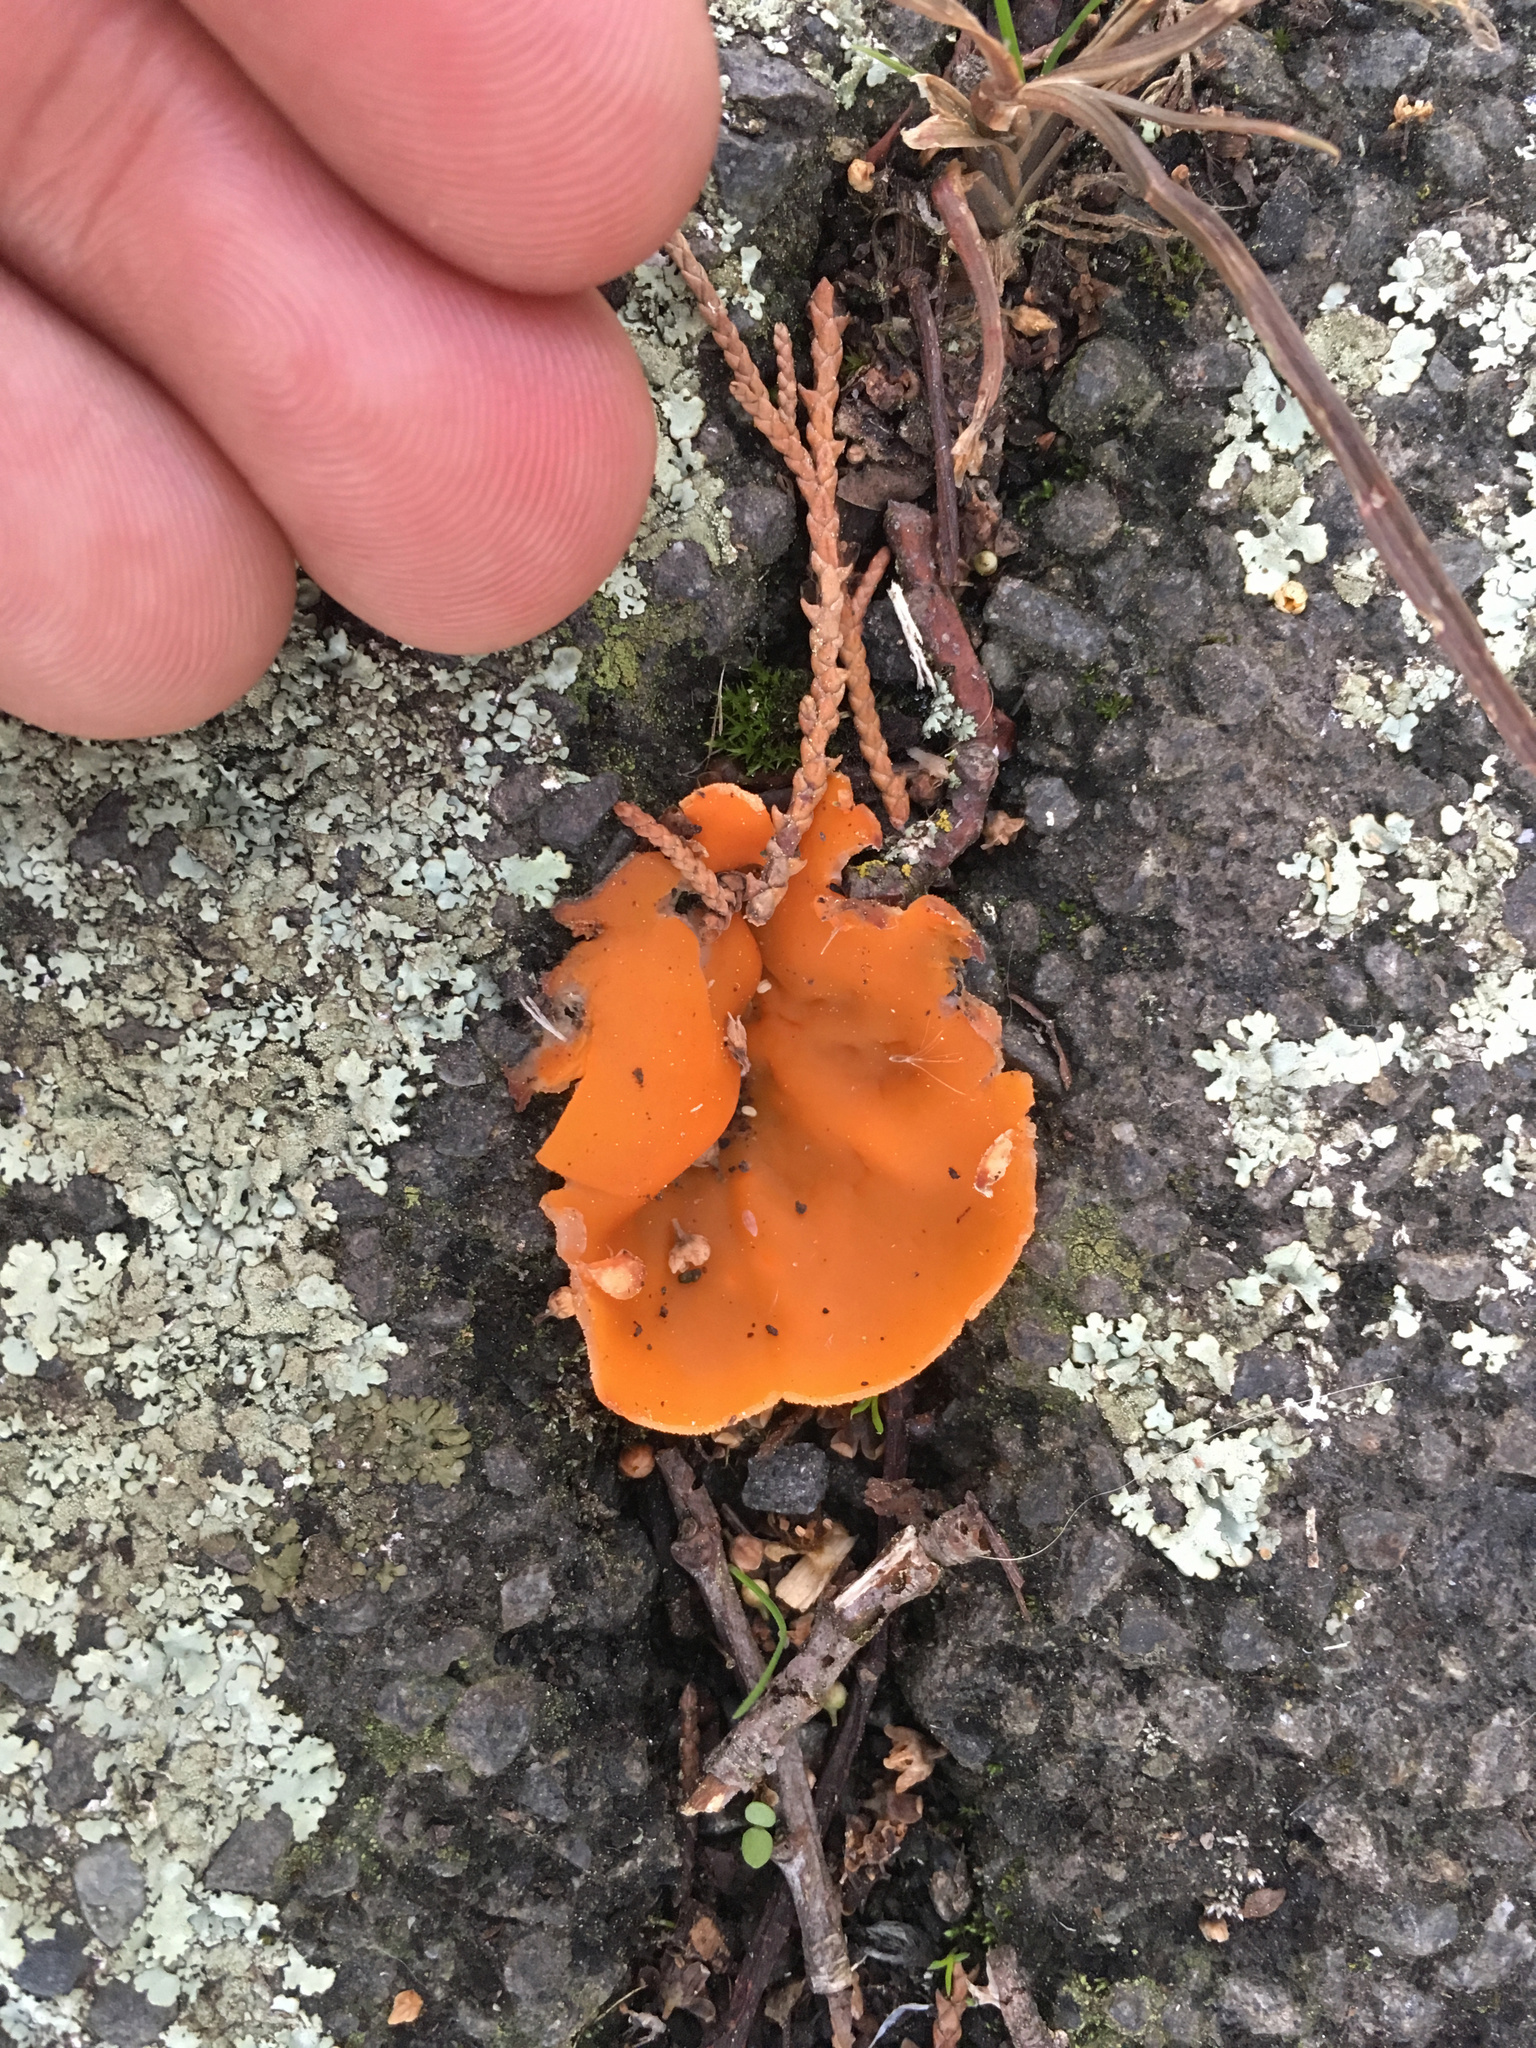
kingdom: Fungi
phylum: Ascomycota
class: Pezizomycetes
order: Pezizales
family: Pyronemataceae
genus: Aleuria
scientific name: Aleuria aurantia
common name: Orange peel fungus
